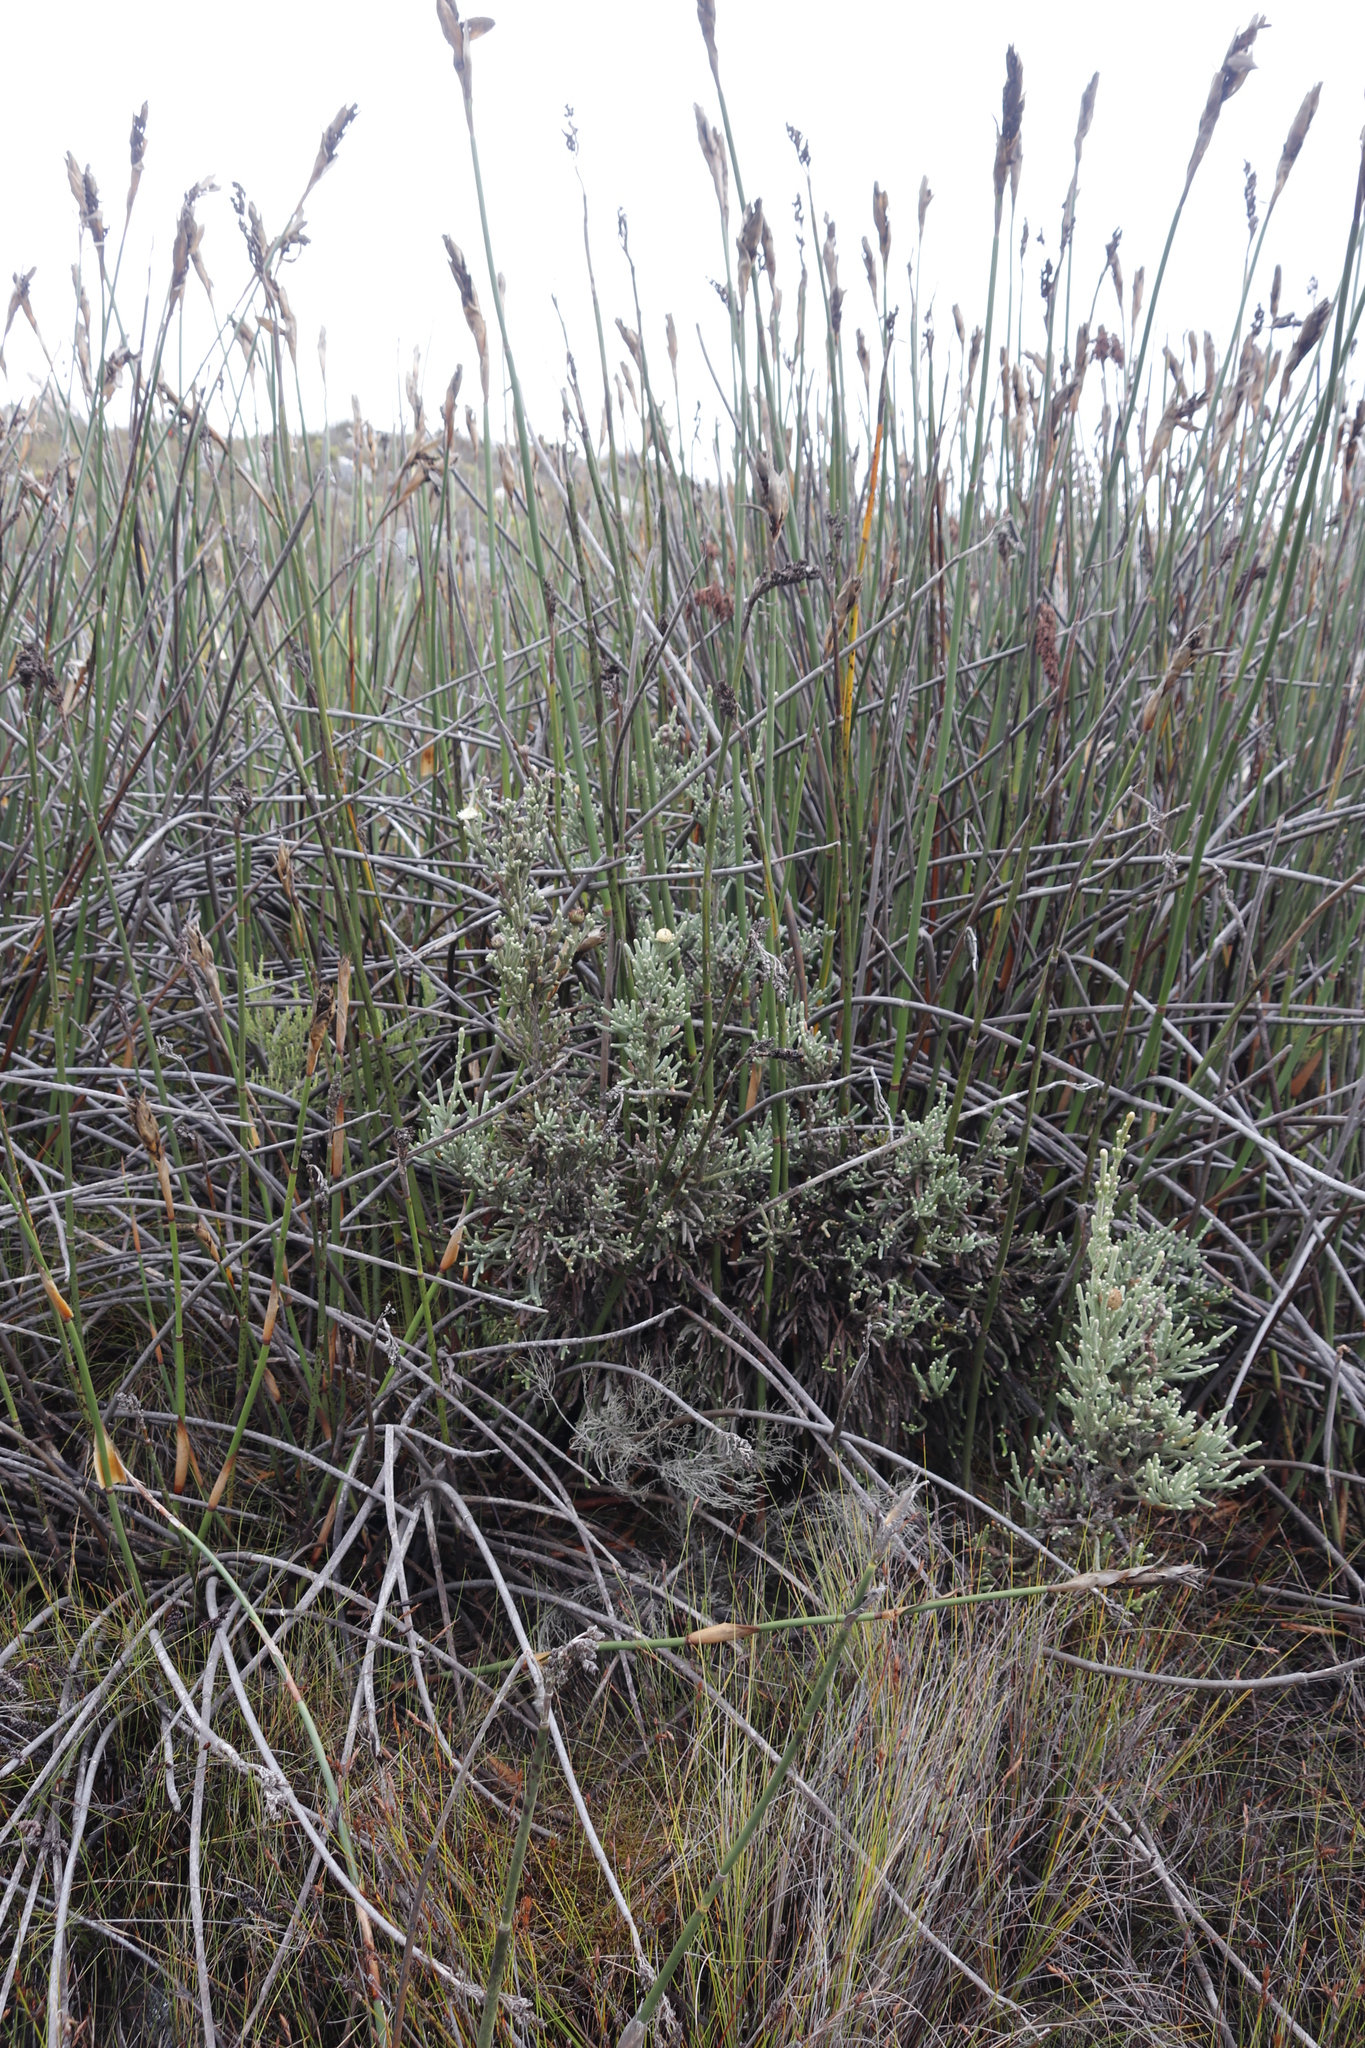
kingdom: Plantae
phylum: Tracheophyta
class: Liliopsida
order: Poales
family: Restionaceae
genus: Elegia
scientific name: Elegia mucronata
